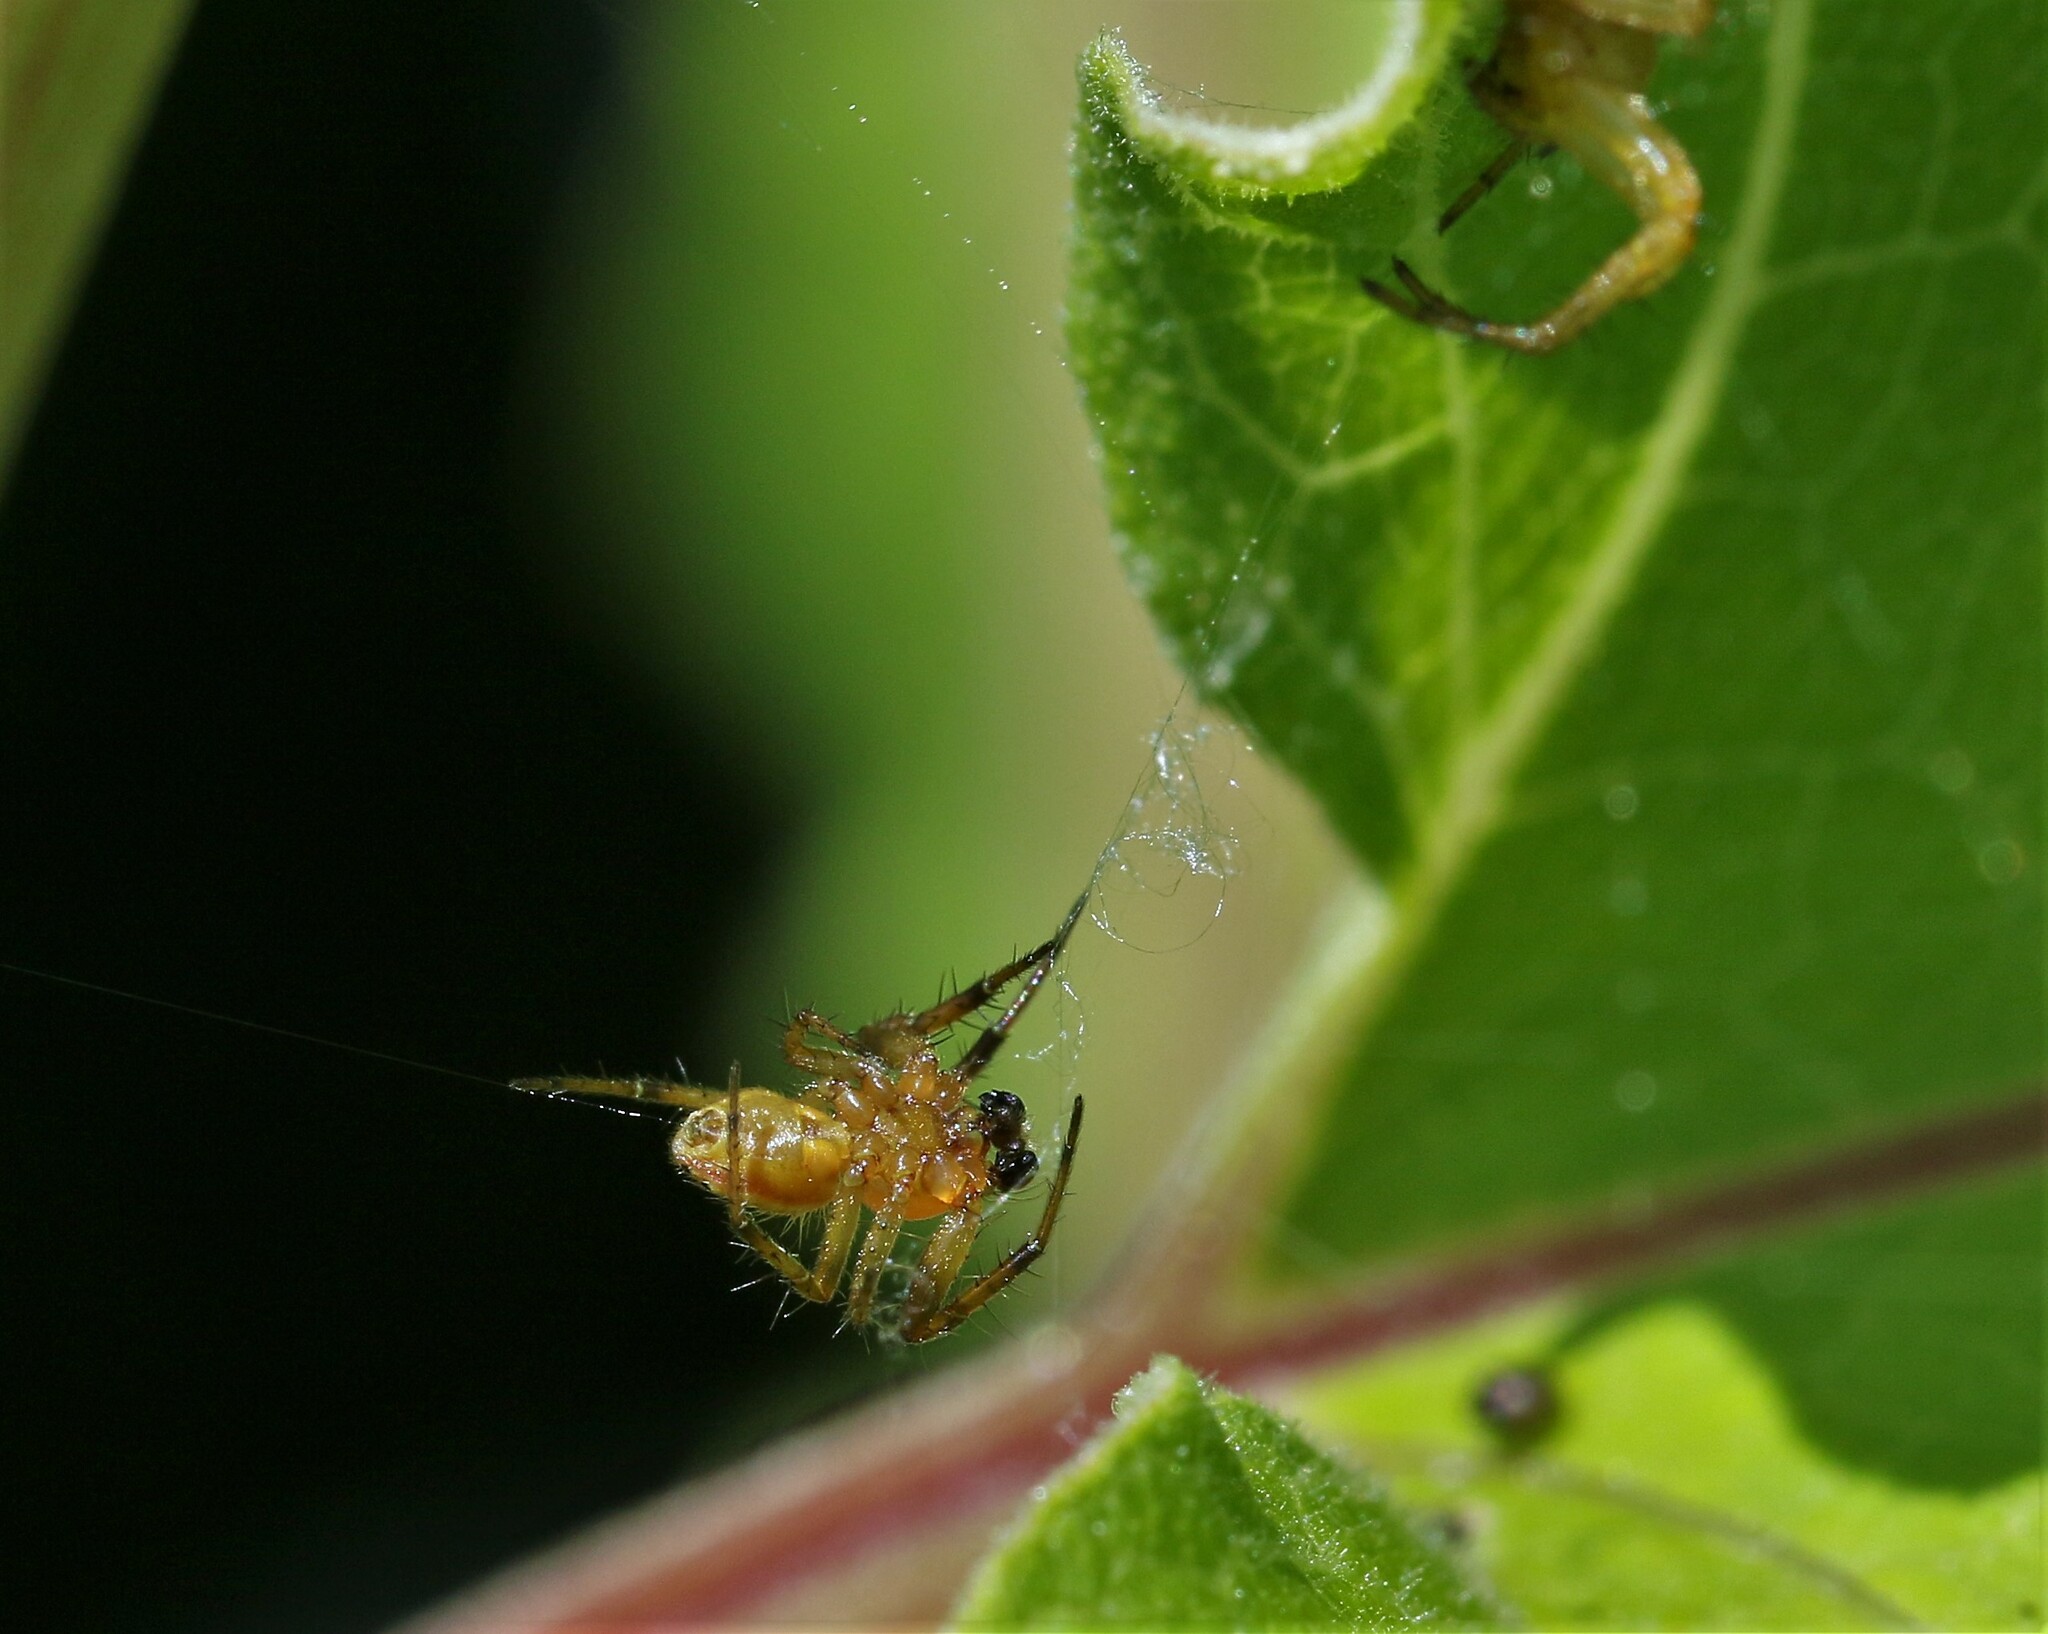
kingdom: Animalia
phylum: Arthropoda
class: Arachnida
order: Araneae
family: Araneidae
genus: Araniella
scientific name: Araniella displicata
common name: Sixspotted orb weaver
